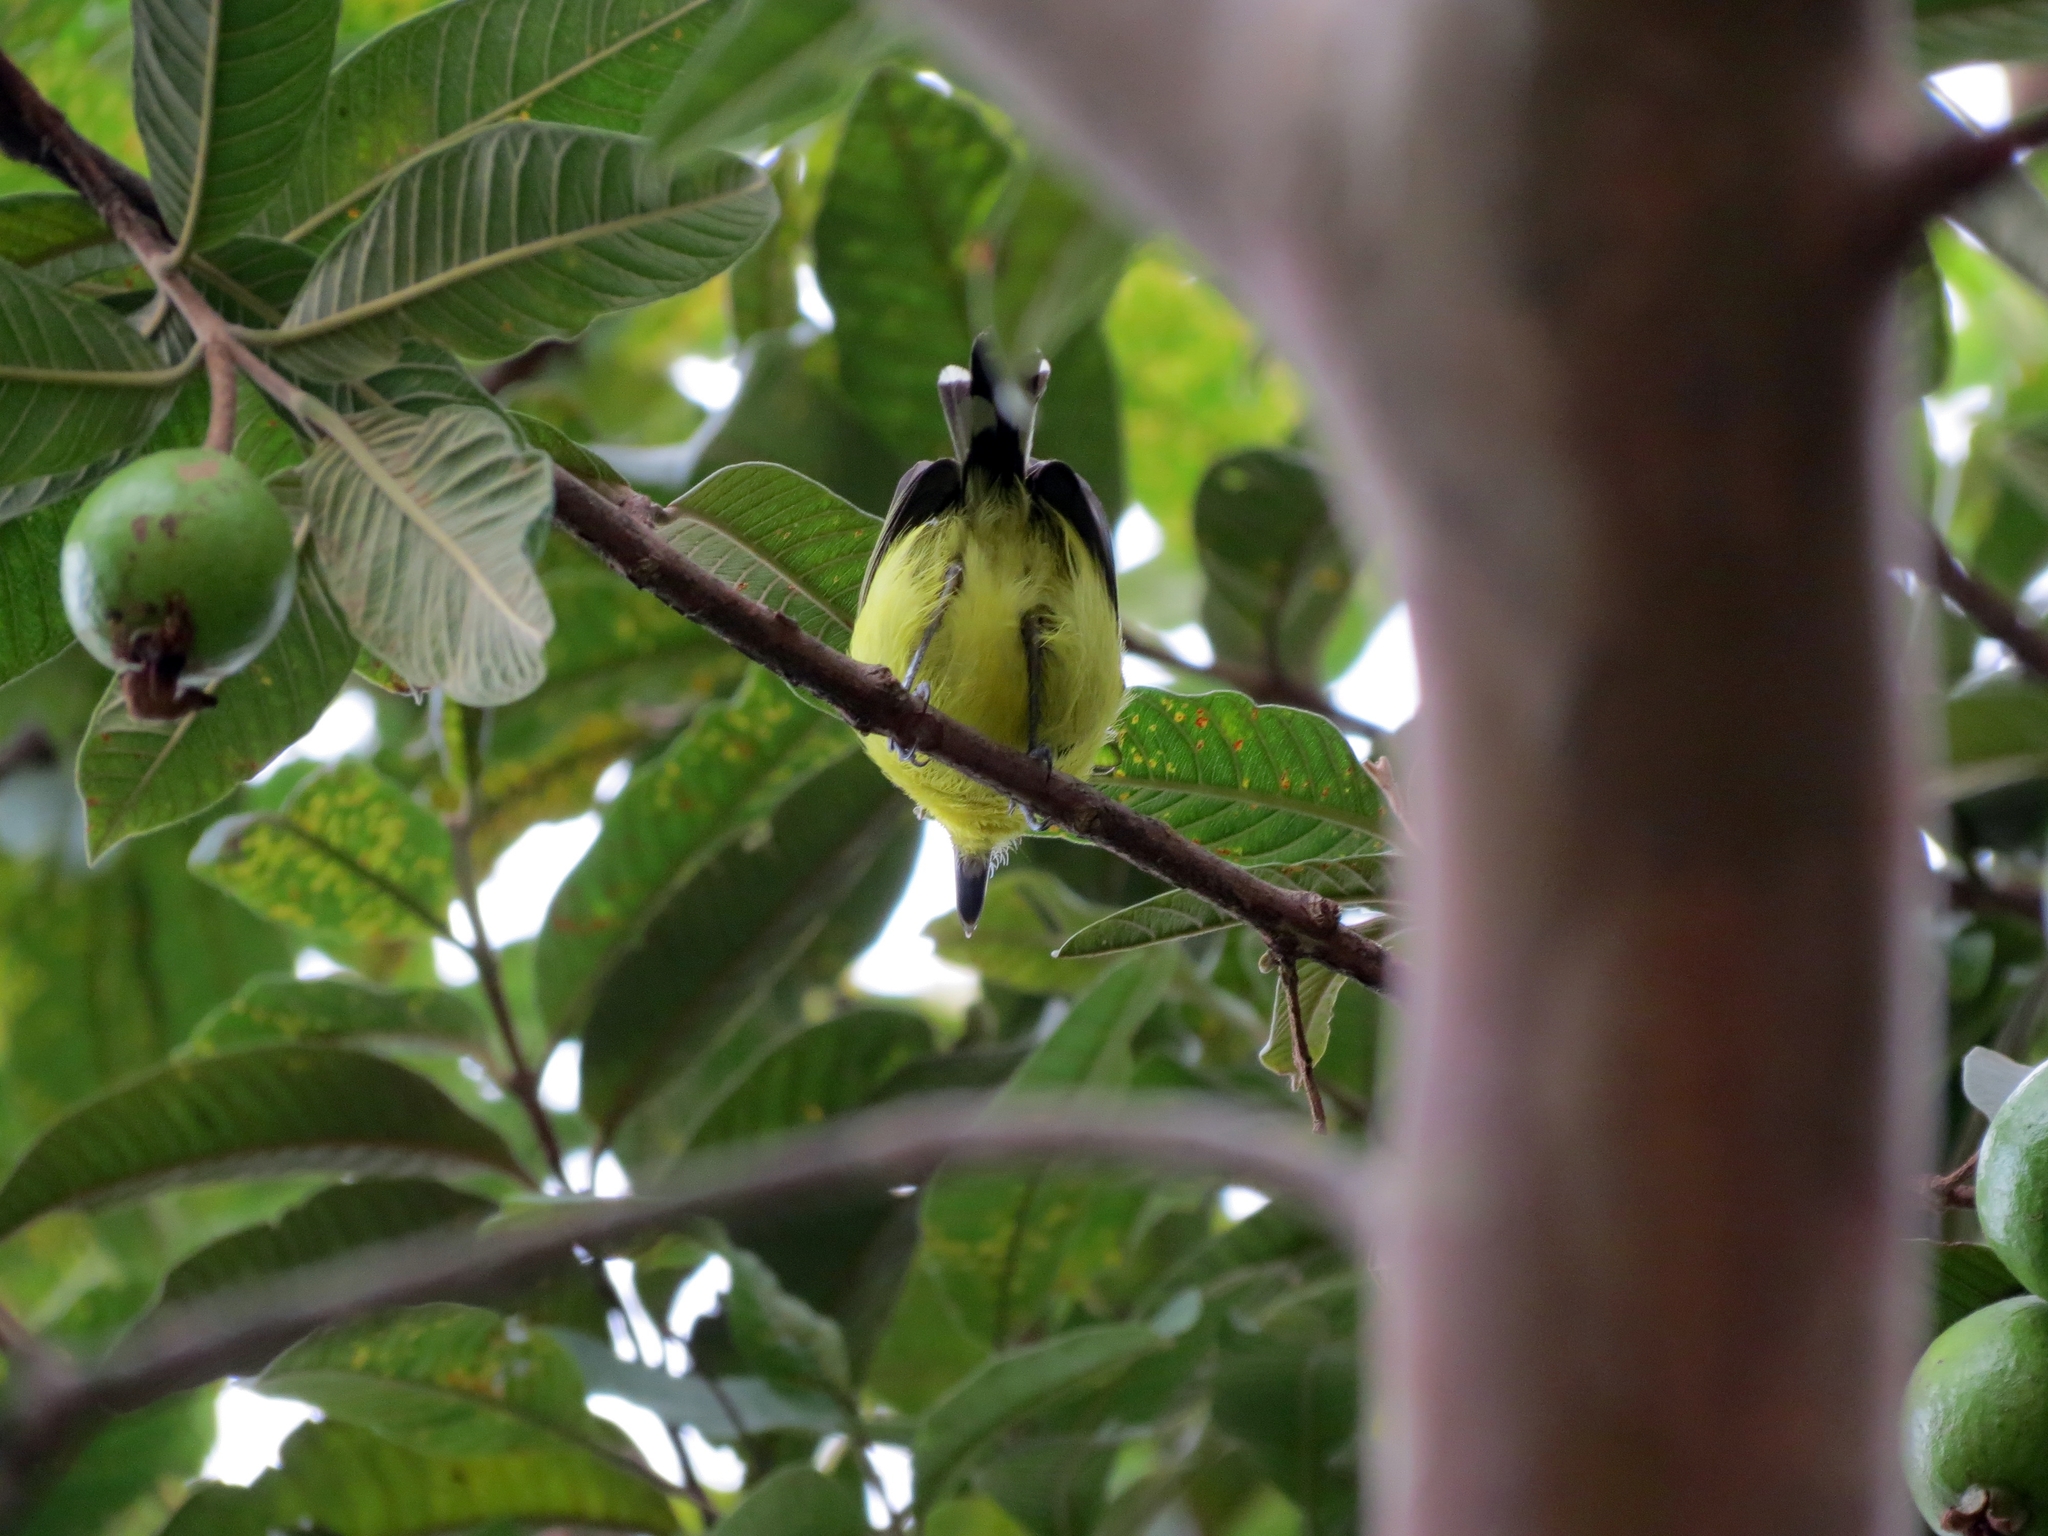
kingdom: Animalia
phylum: Chordata
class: Aves
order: Passeriformes
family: Tyrannidae
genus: Todirostrum
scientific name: Todirostrum cinereum
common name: Common tody-flycatcher
